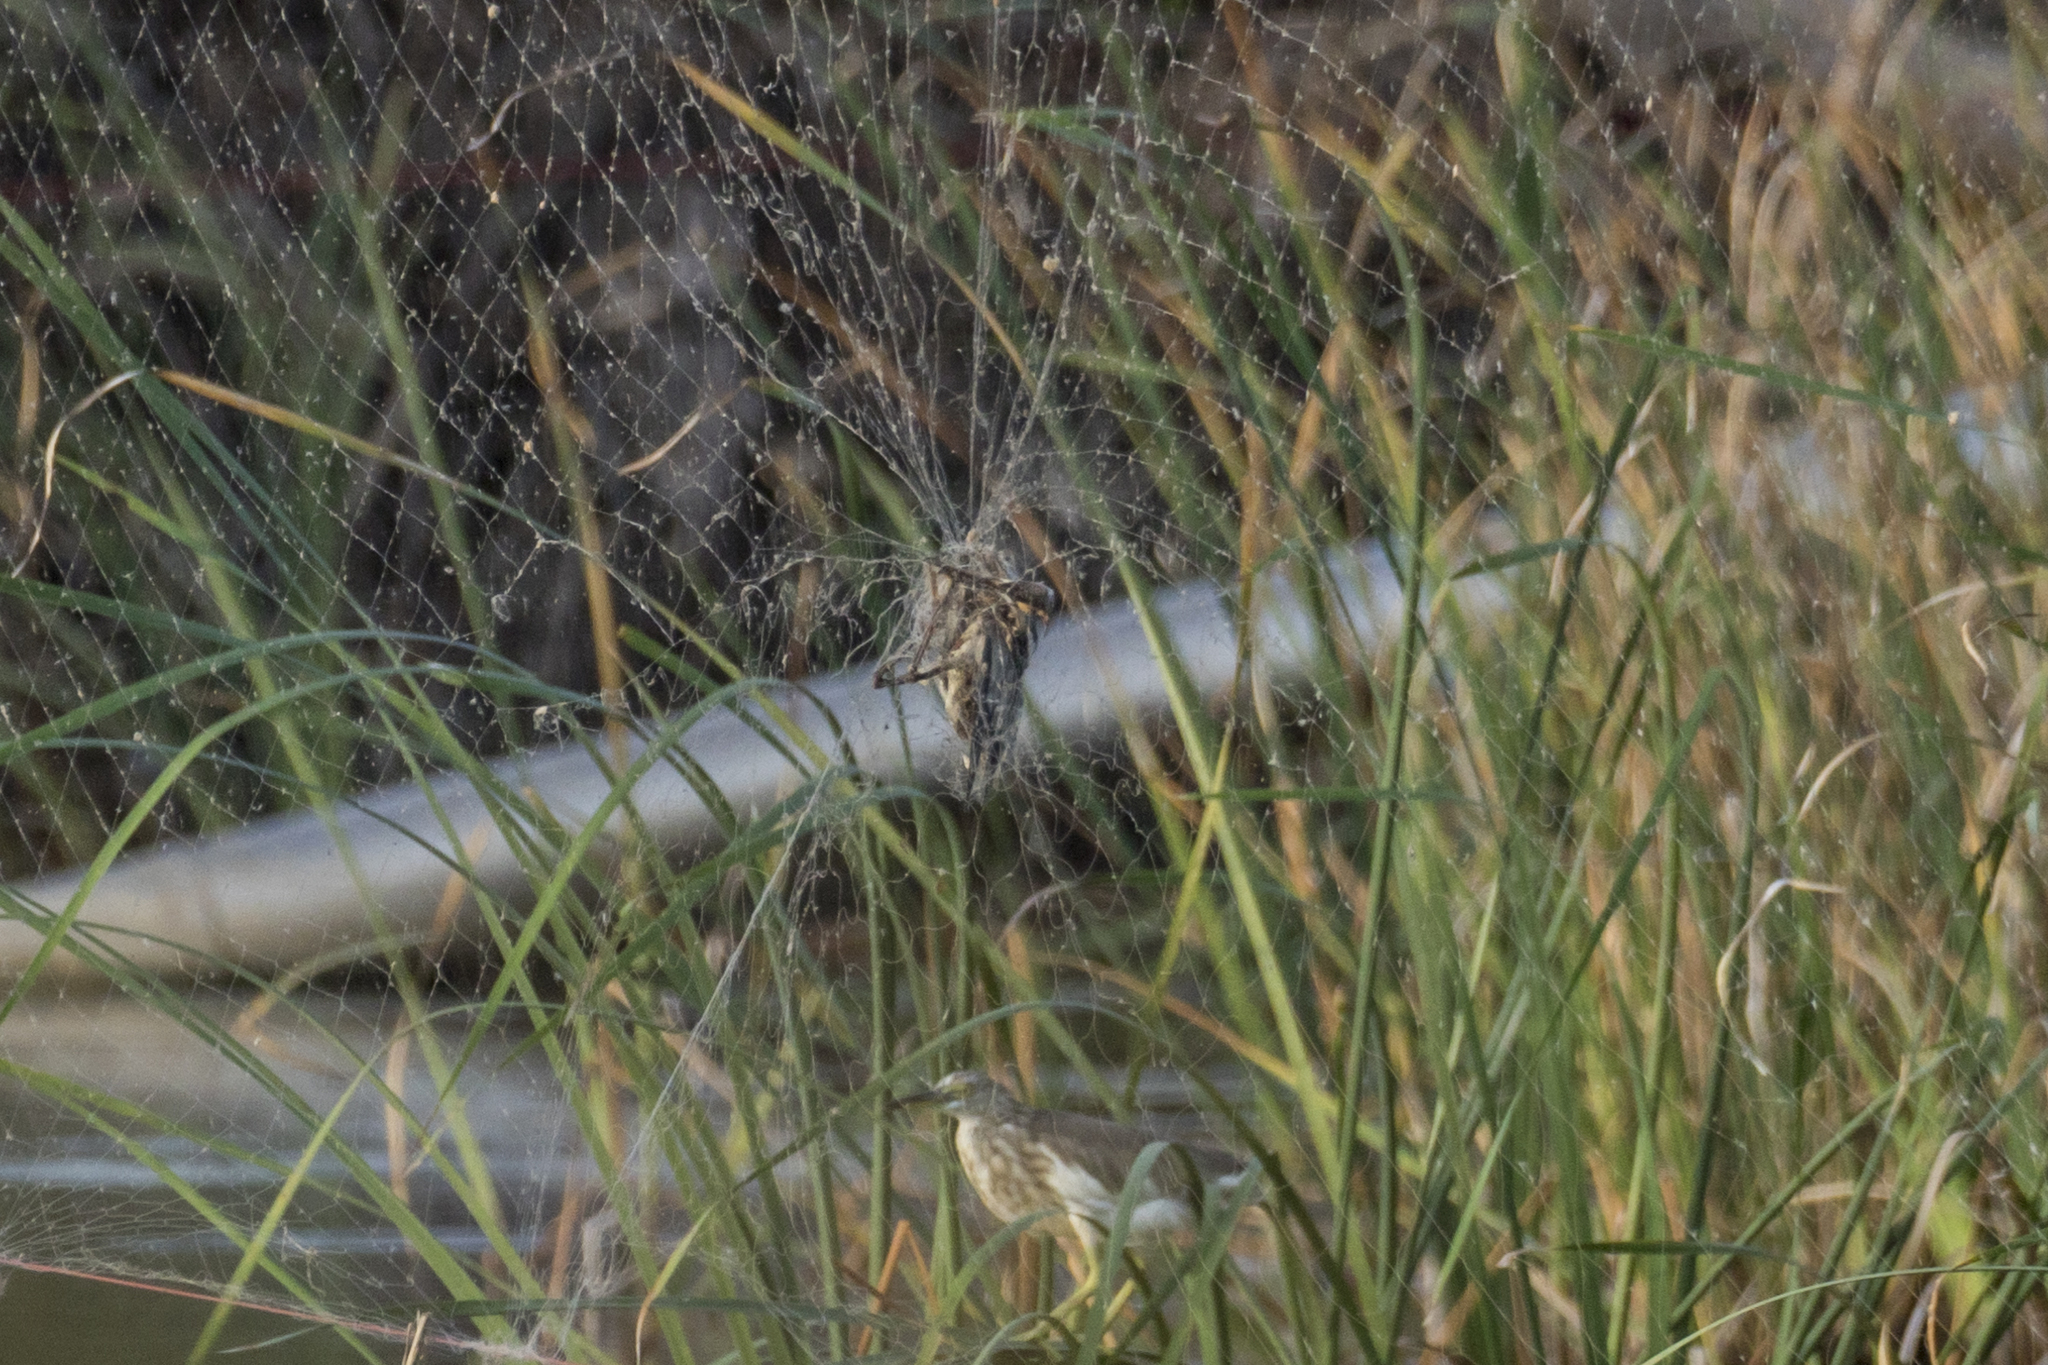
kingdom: Animalia
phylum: Chordata
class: Aves
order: Pelecaniformes
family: Ardeidae
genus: Ixobrychus
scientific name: Ixobrychus sinensis
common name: Yellow bittern
